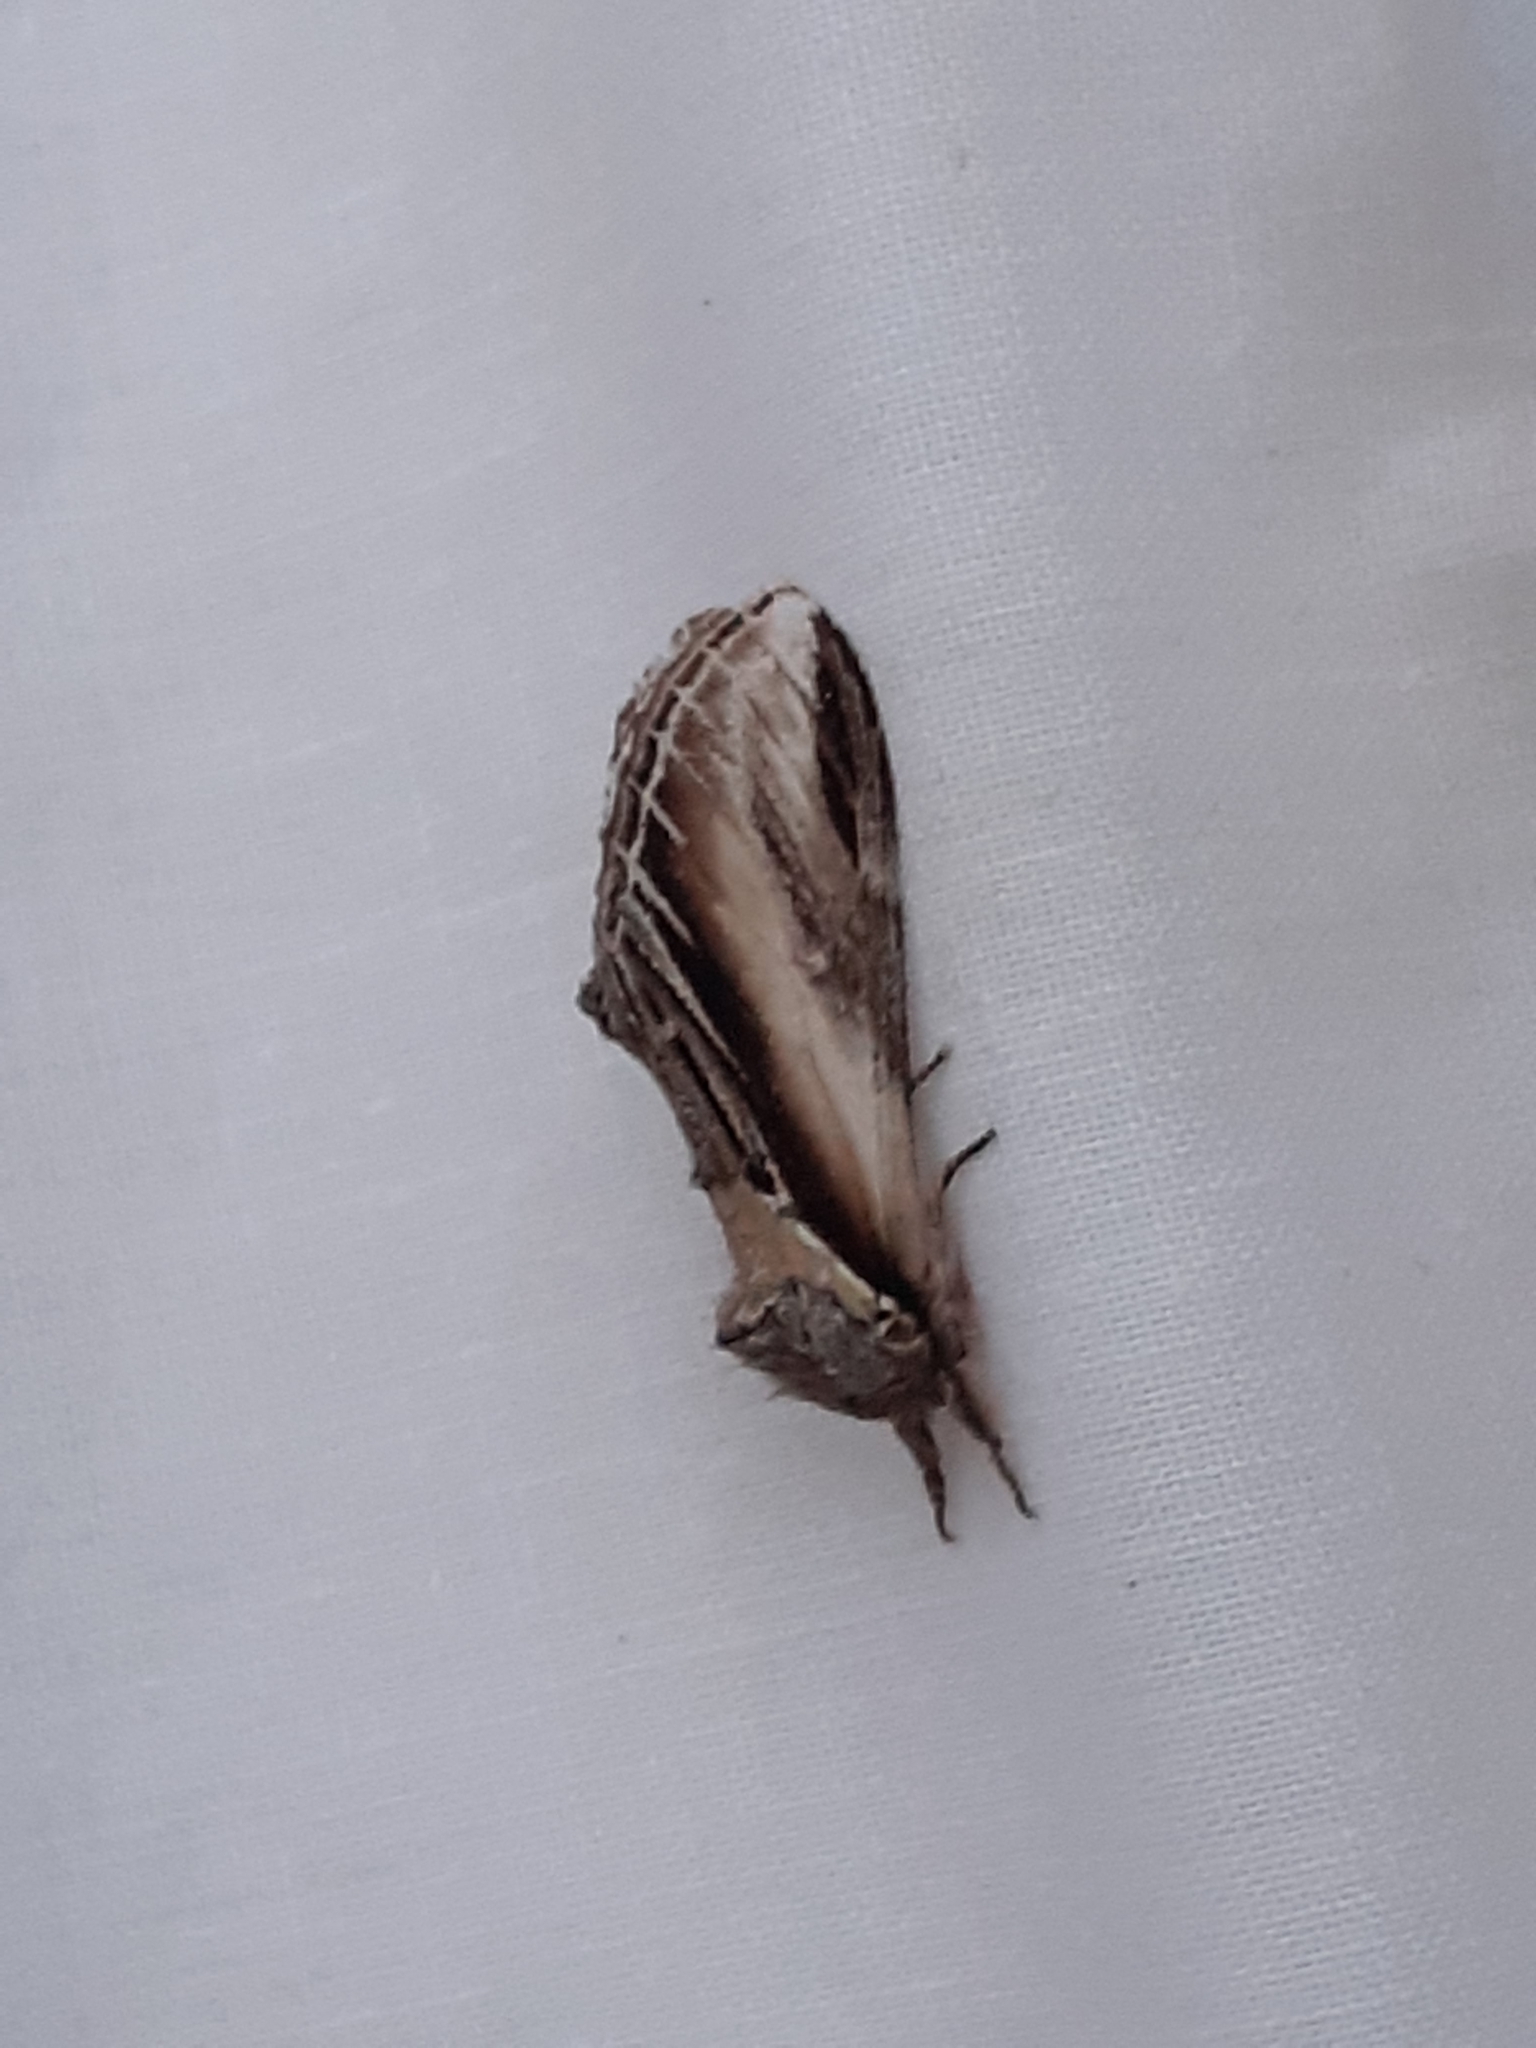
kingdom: Animalia
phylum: Arthropoda
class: Insecta
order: Lepidoptera
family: Notodontidae
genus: Pheosia
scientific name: Pheosia tremula
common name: Swallow prominent
